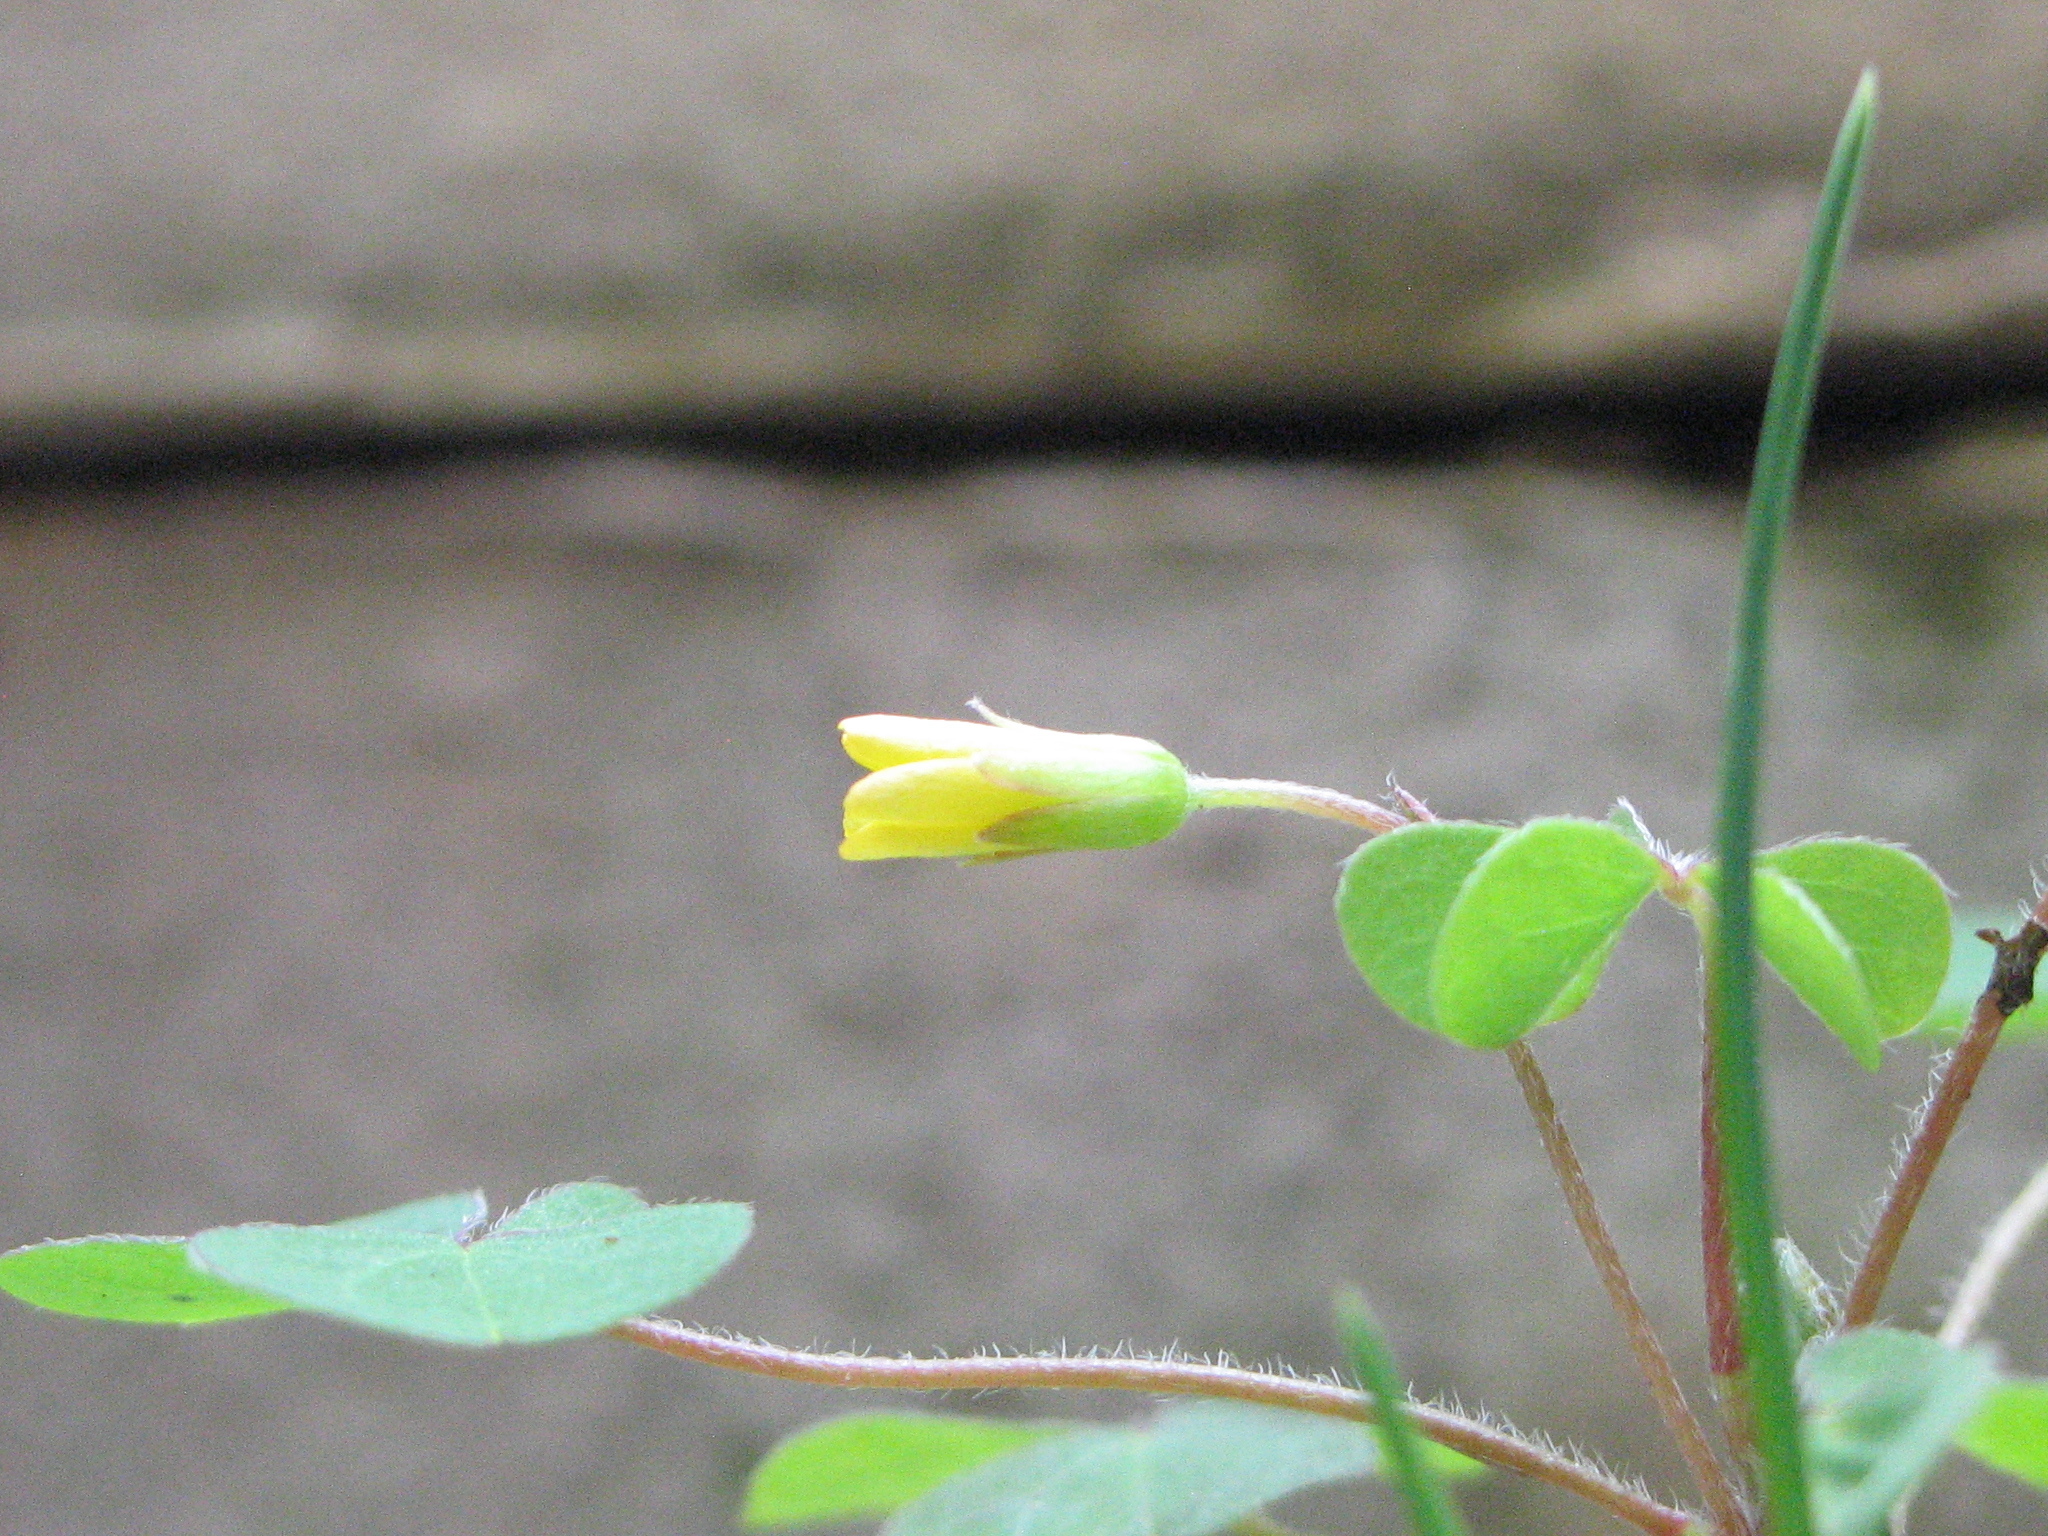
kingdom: Plantae
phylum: Tracheophyta
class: Magnoliopsida
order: Oxalidales
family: Oxalidaceae
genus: Oxalis
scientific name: Oxalis stricta
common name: Upright yellow-sorrel
